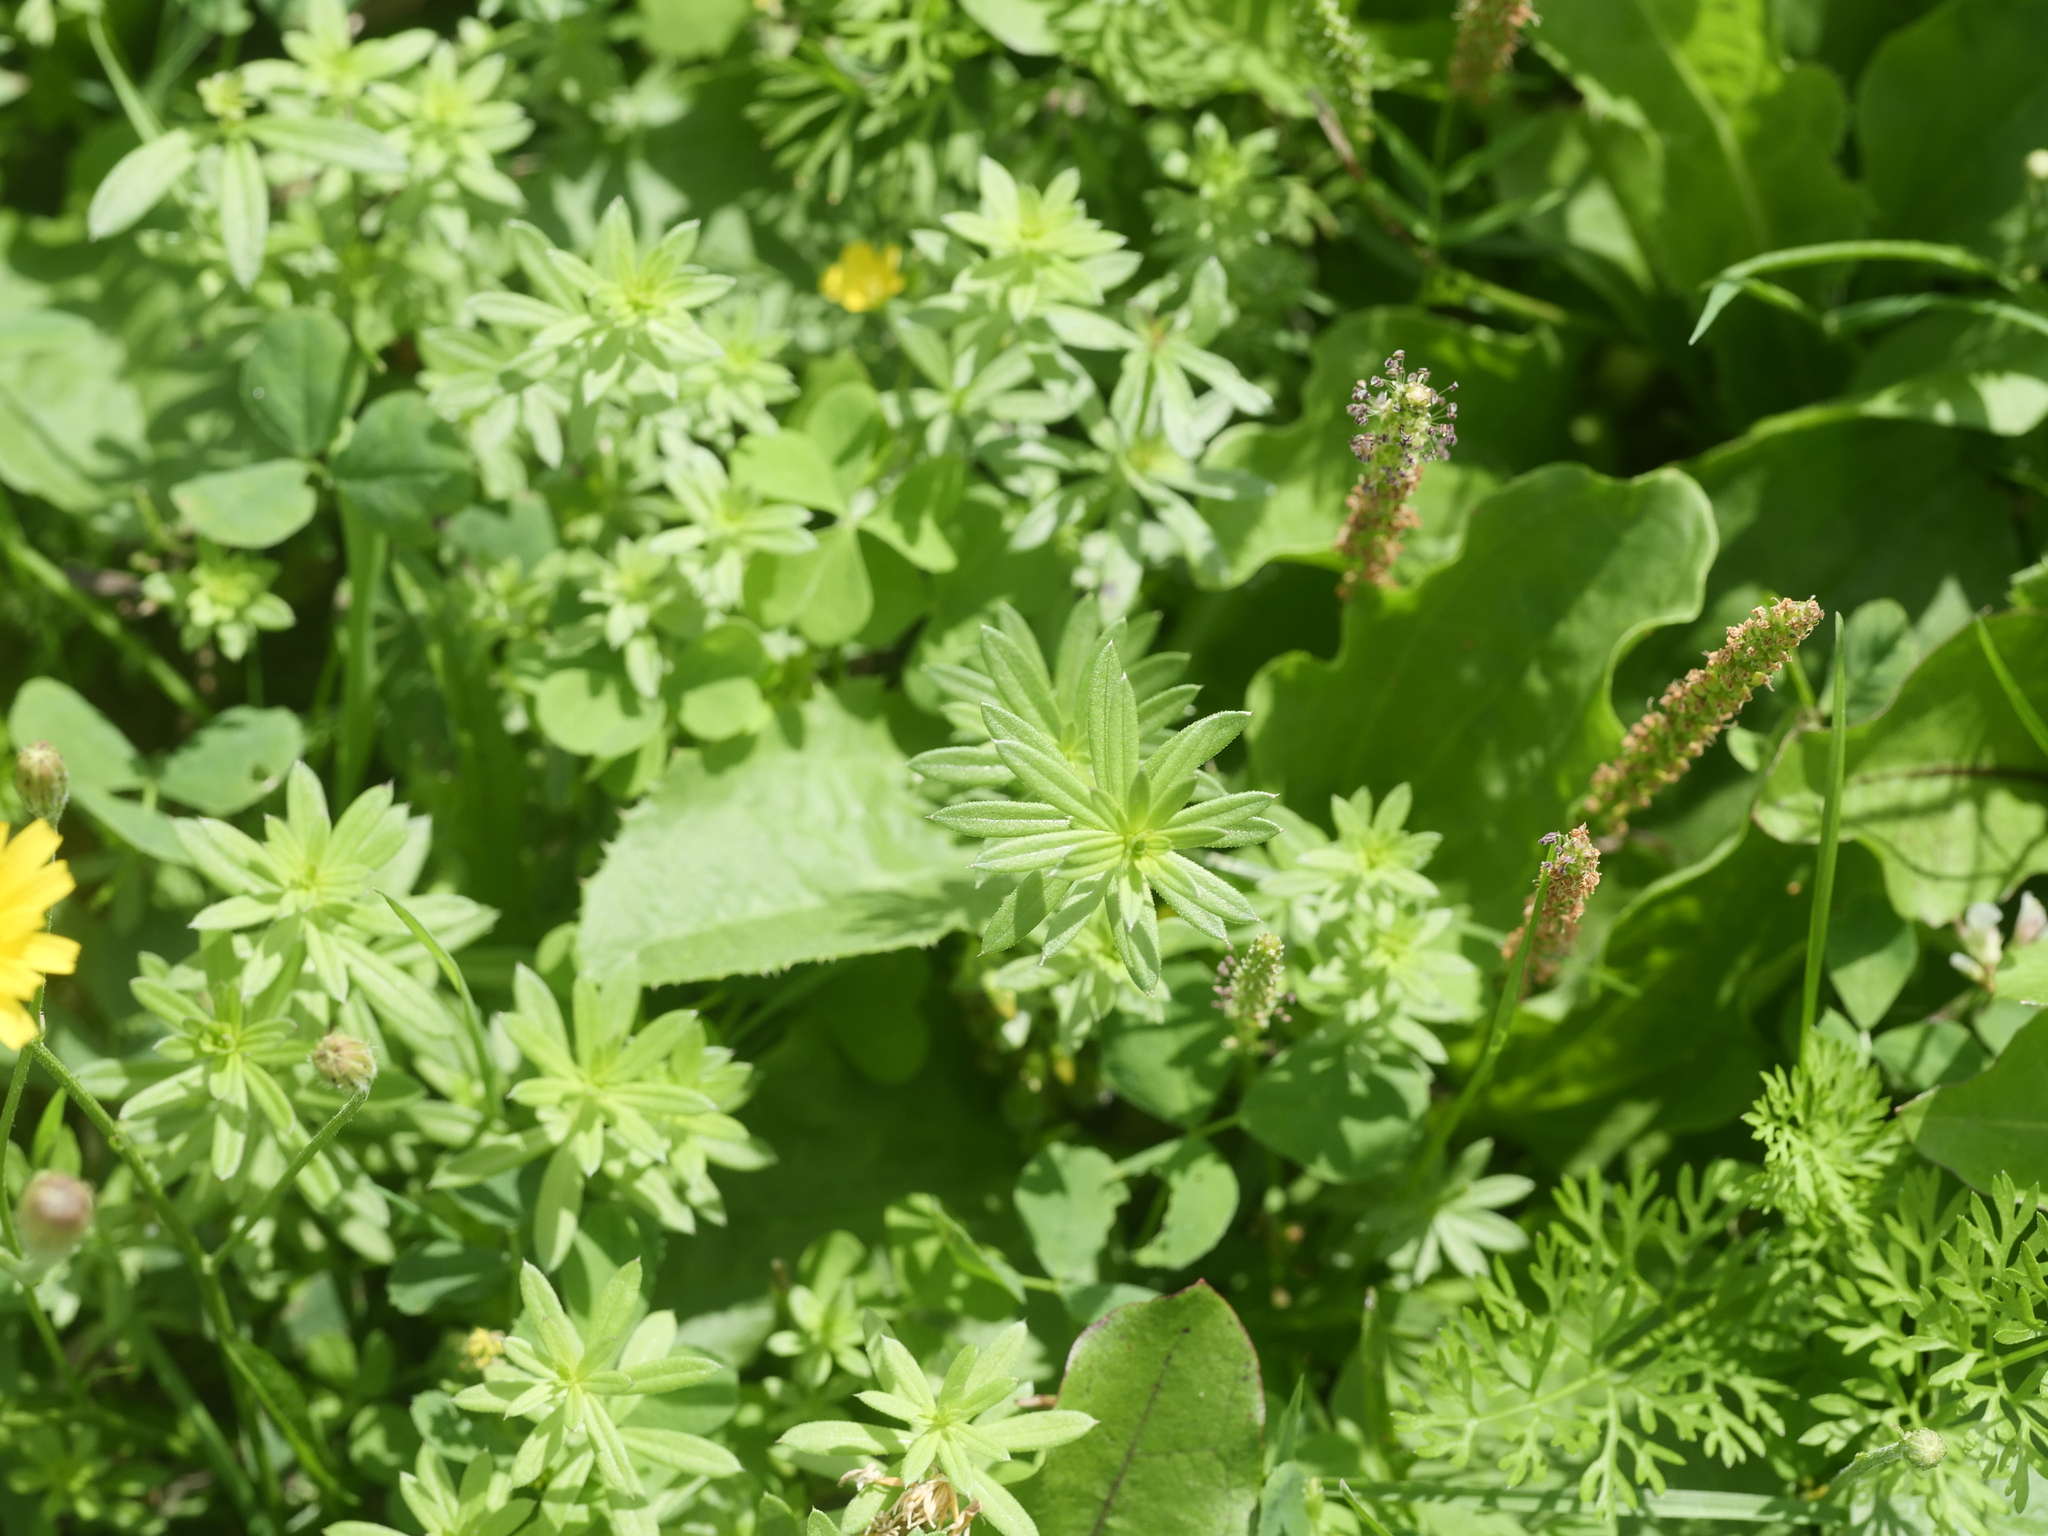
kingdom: Plantae
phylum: Tracheophyta
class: Magnoliopsida
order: Gentianales
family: Rubiaceae
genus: Galium
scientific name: Galium mollugo
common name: Hedge bedstraw
